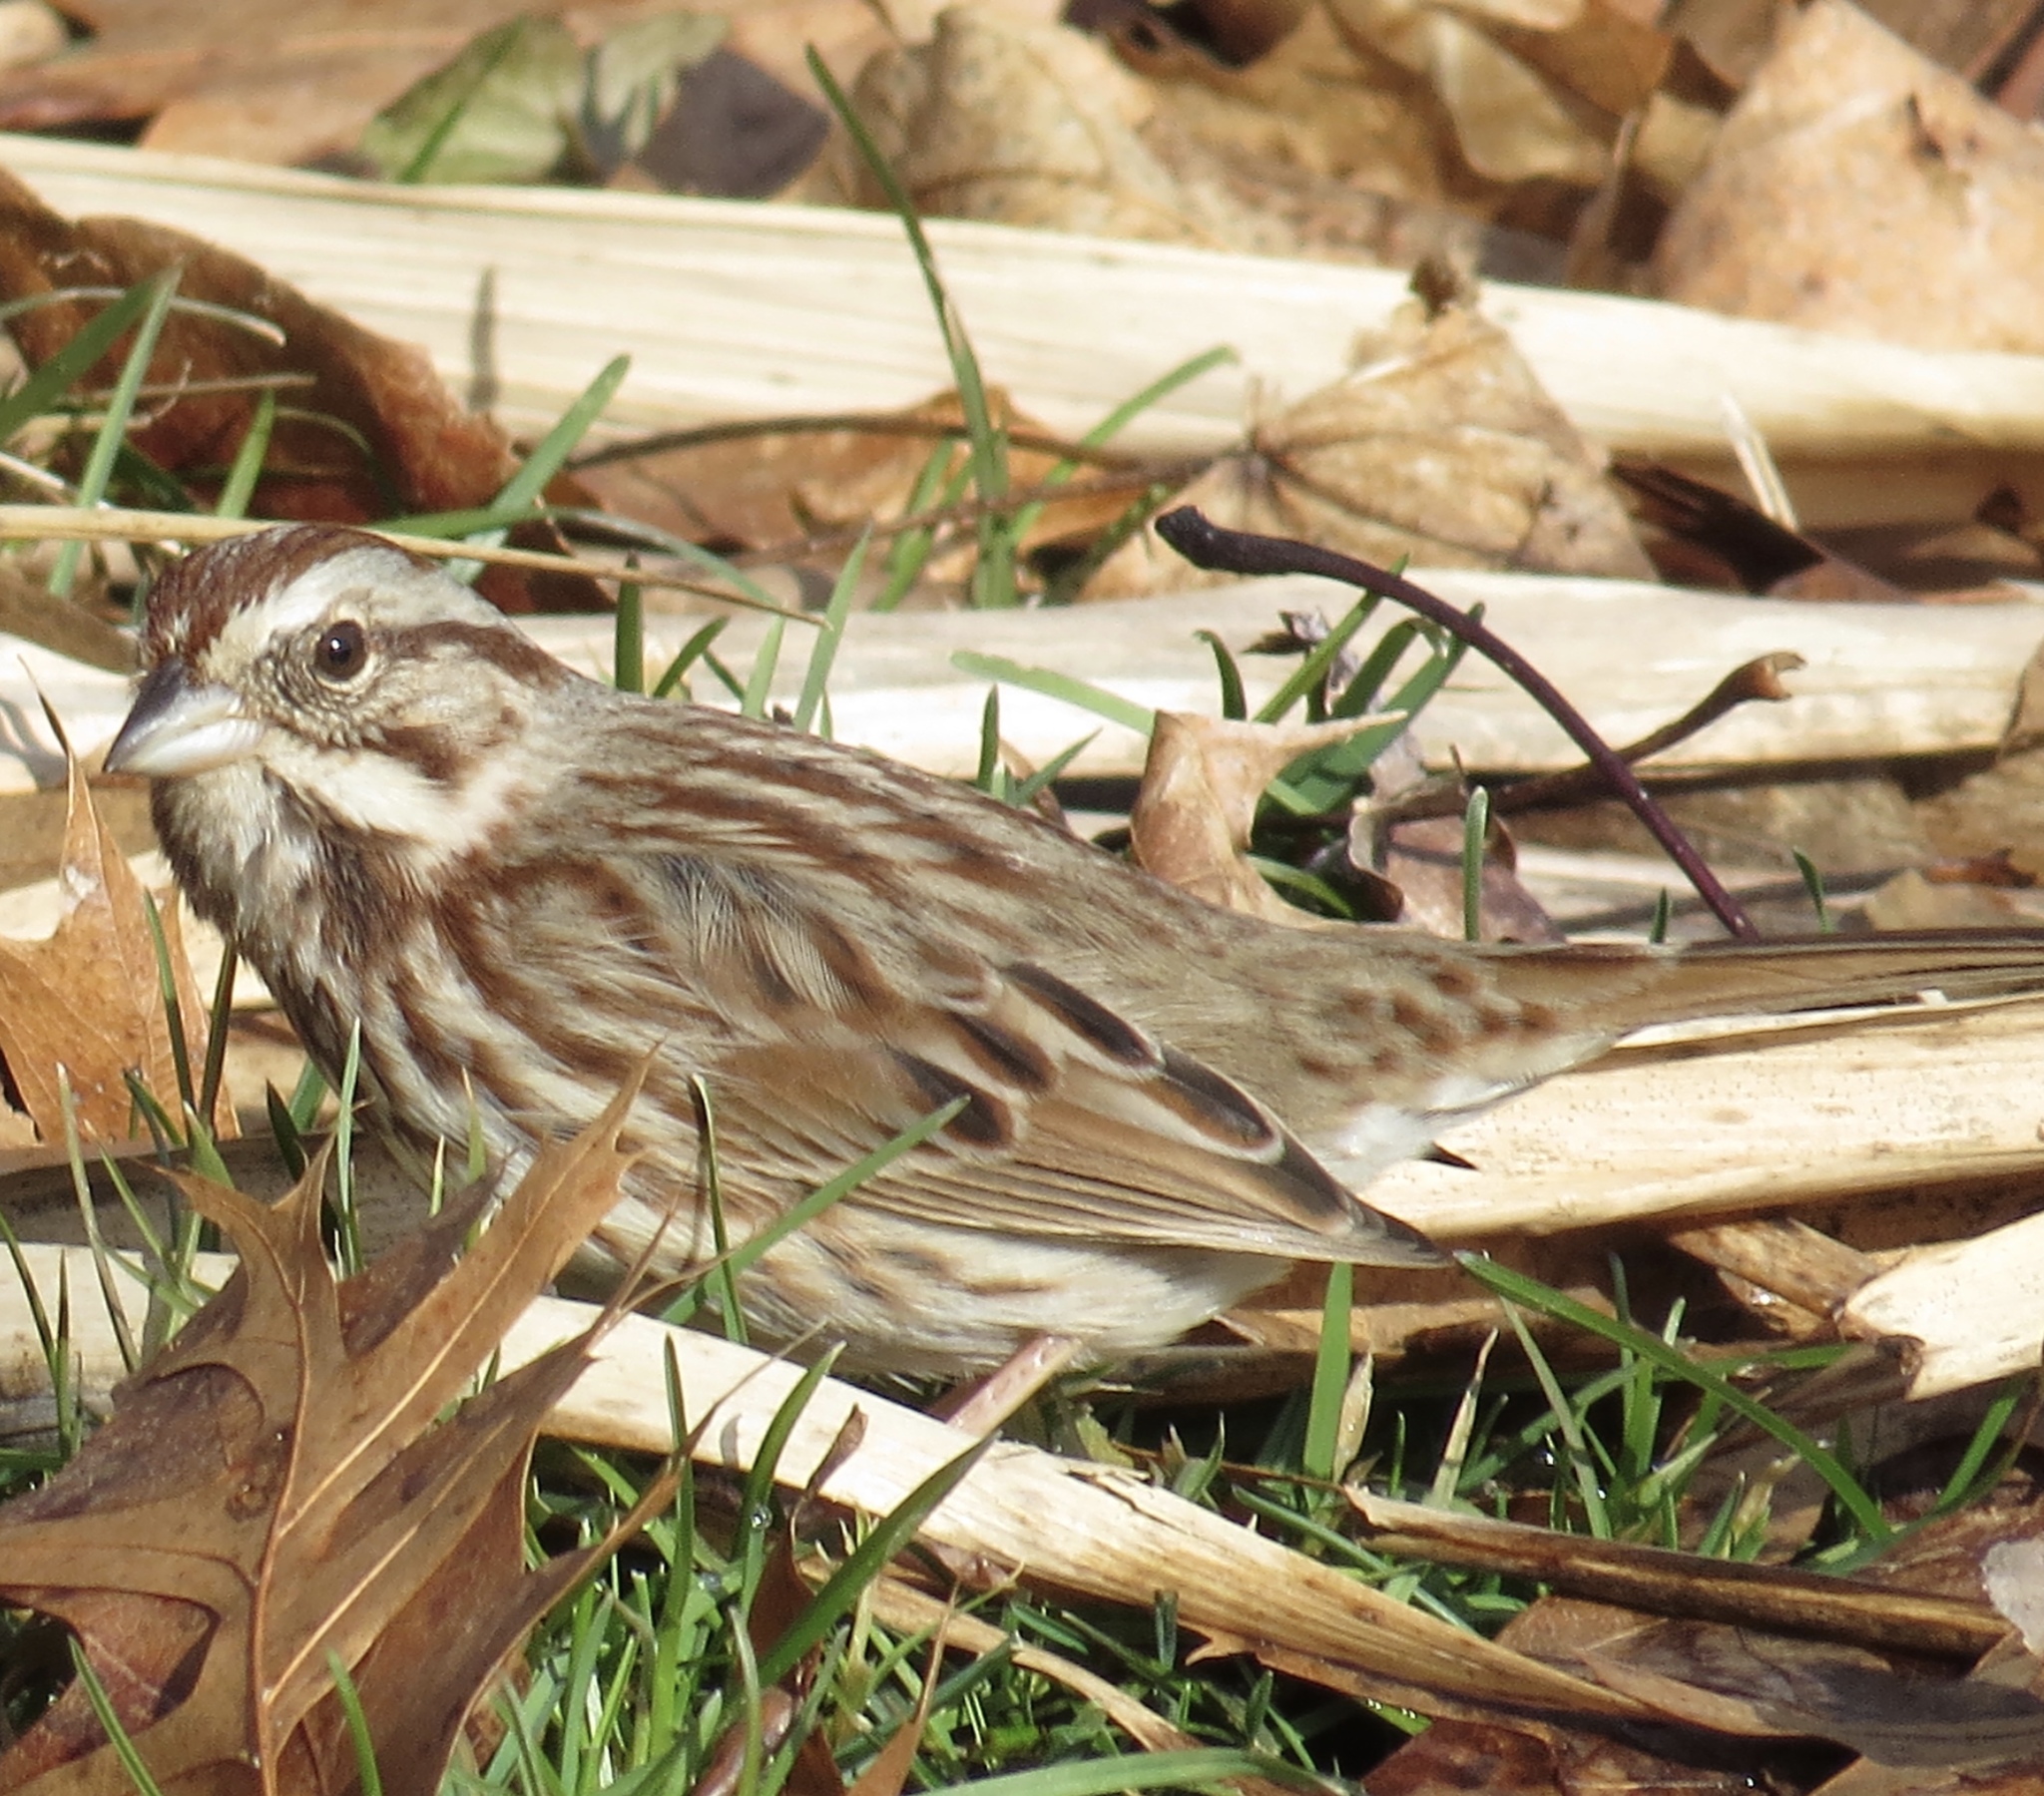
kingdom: Animalia
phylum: Chordata
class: Aves
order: Passeriformes
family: Passerellidae
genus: Melospiza
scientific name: Melospiza melodia
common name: Song sparrow
